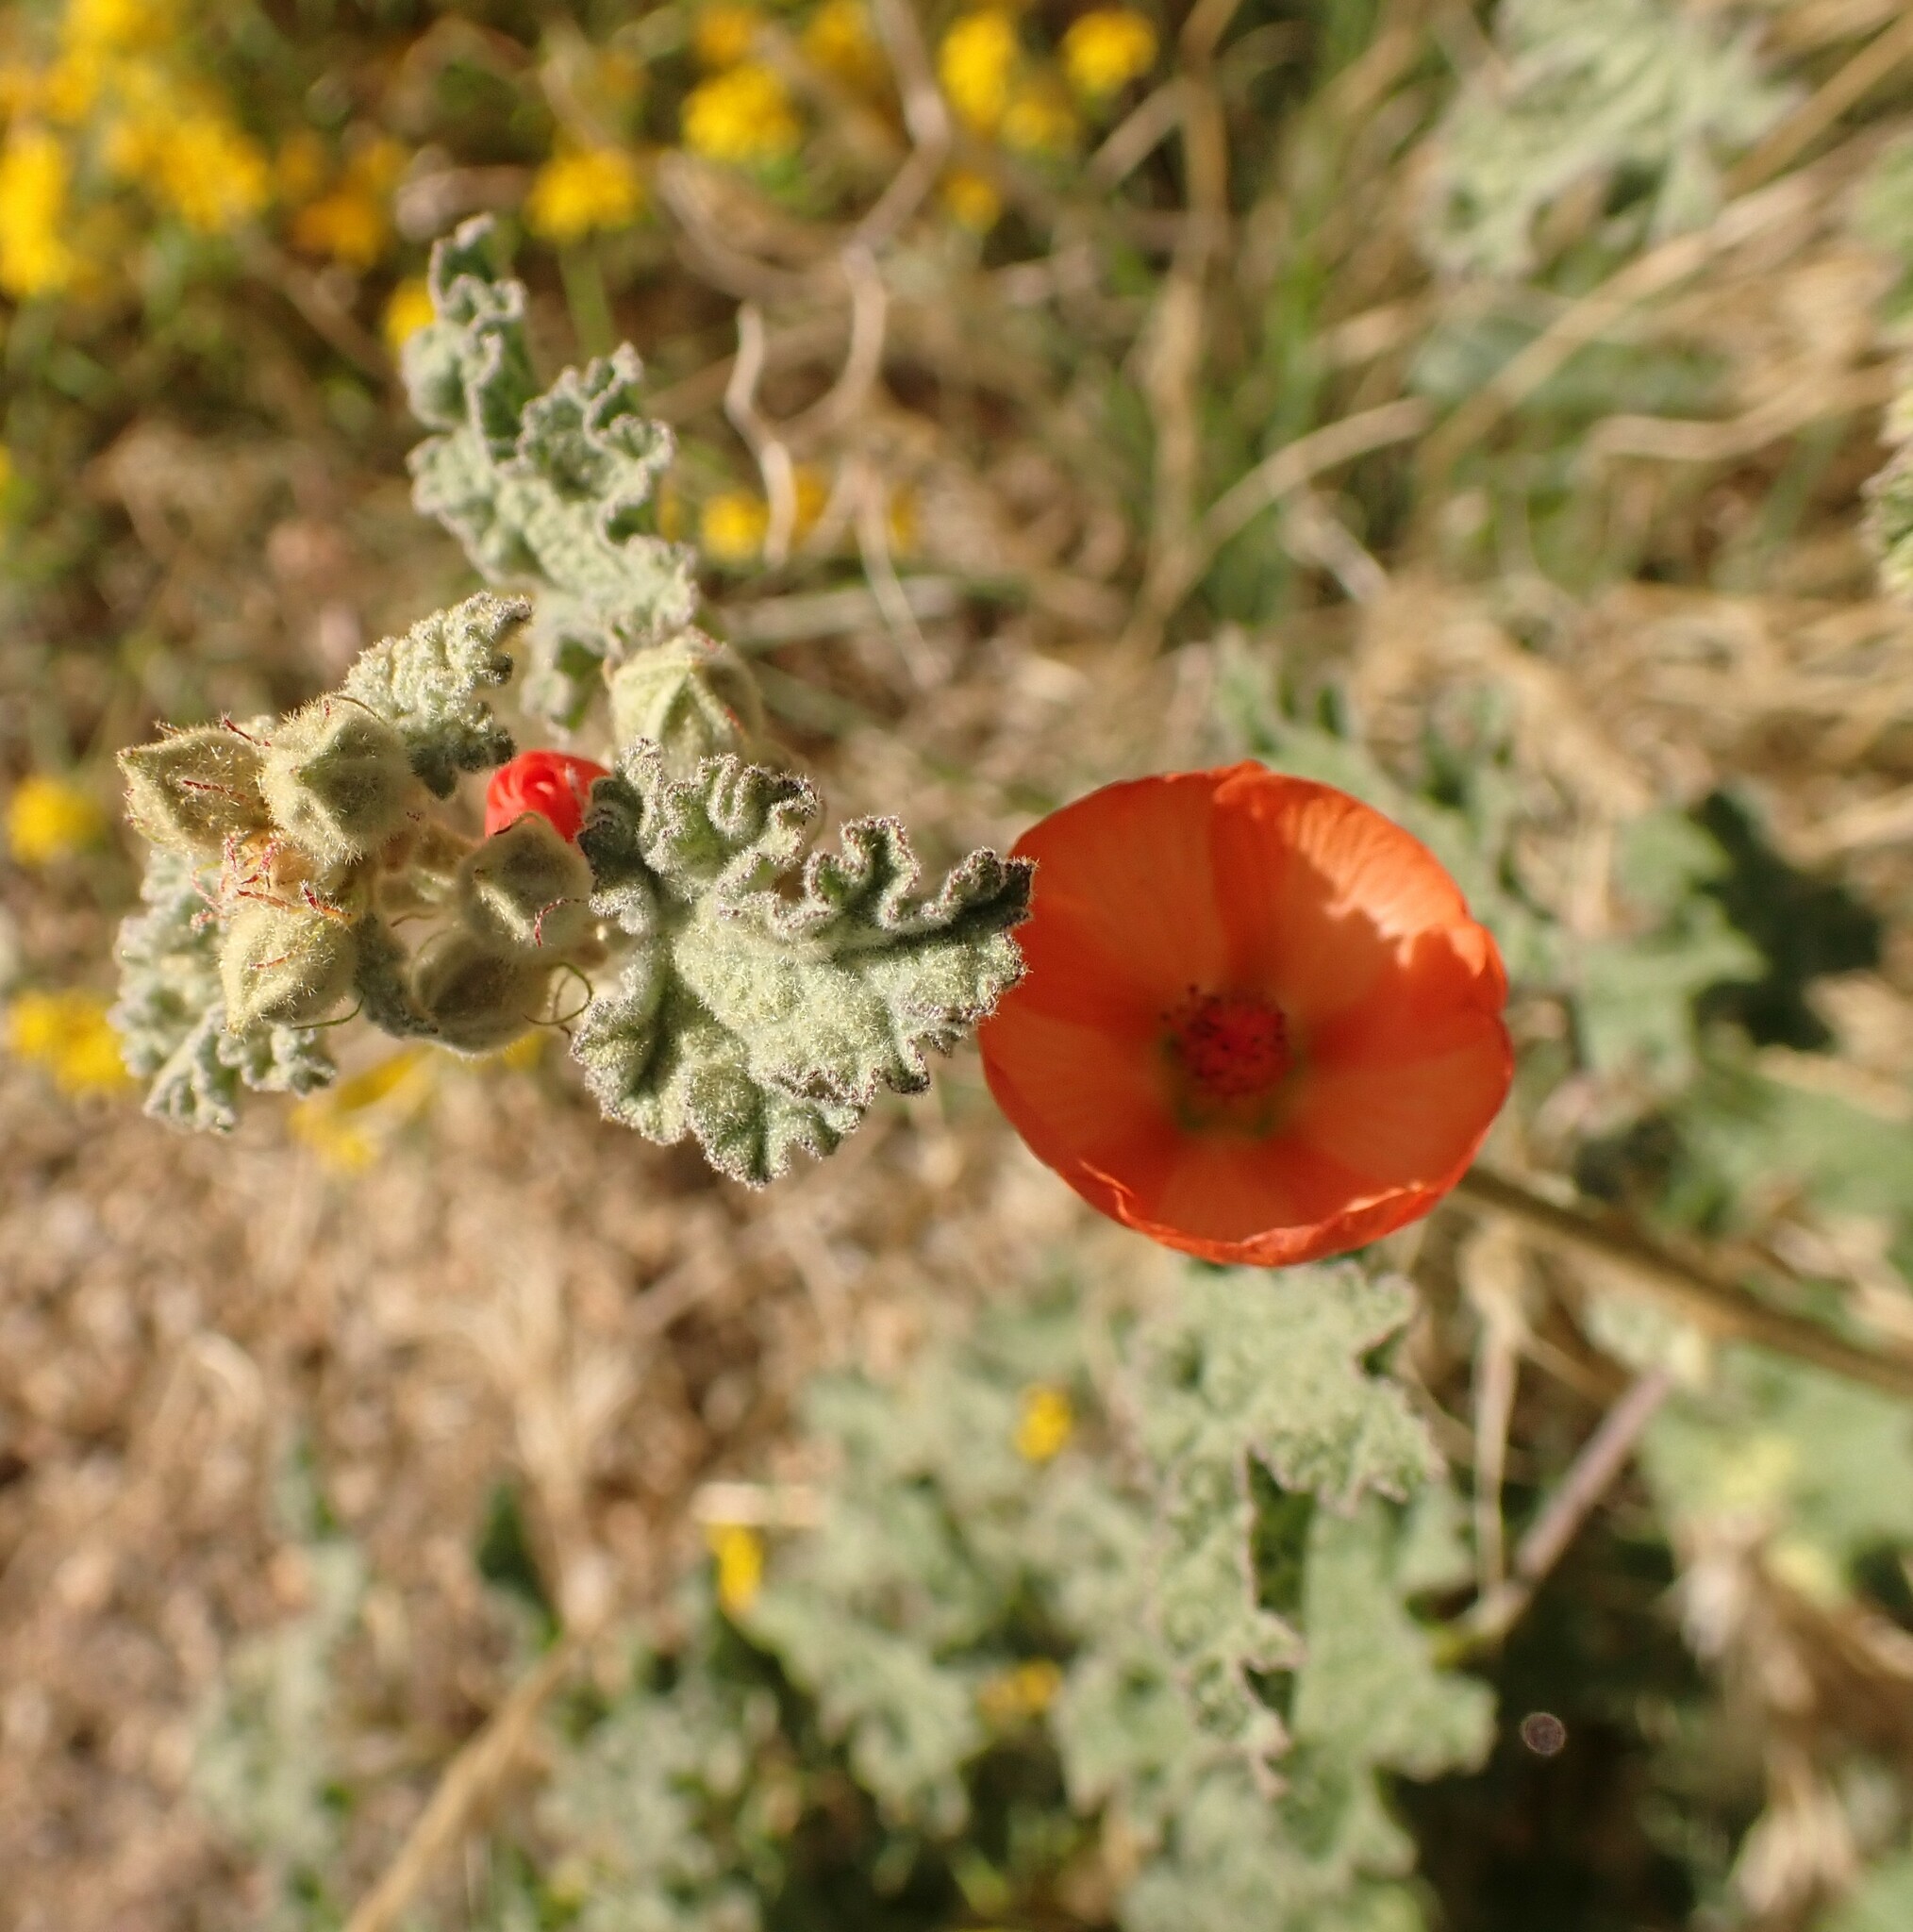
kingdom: Plantae
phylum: Tracheophyta
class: Magnoliopsida
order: Malvales
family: Malvaceae
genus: Sphaeralcea
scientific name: Sphaeralcea ambigua
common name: Apricot globe-mallow
